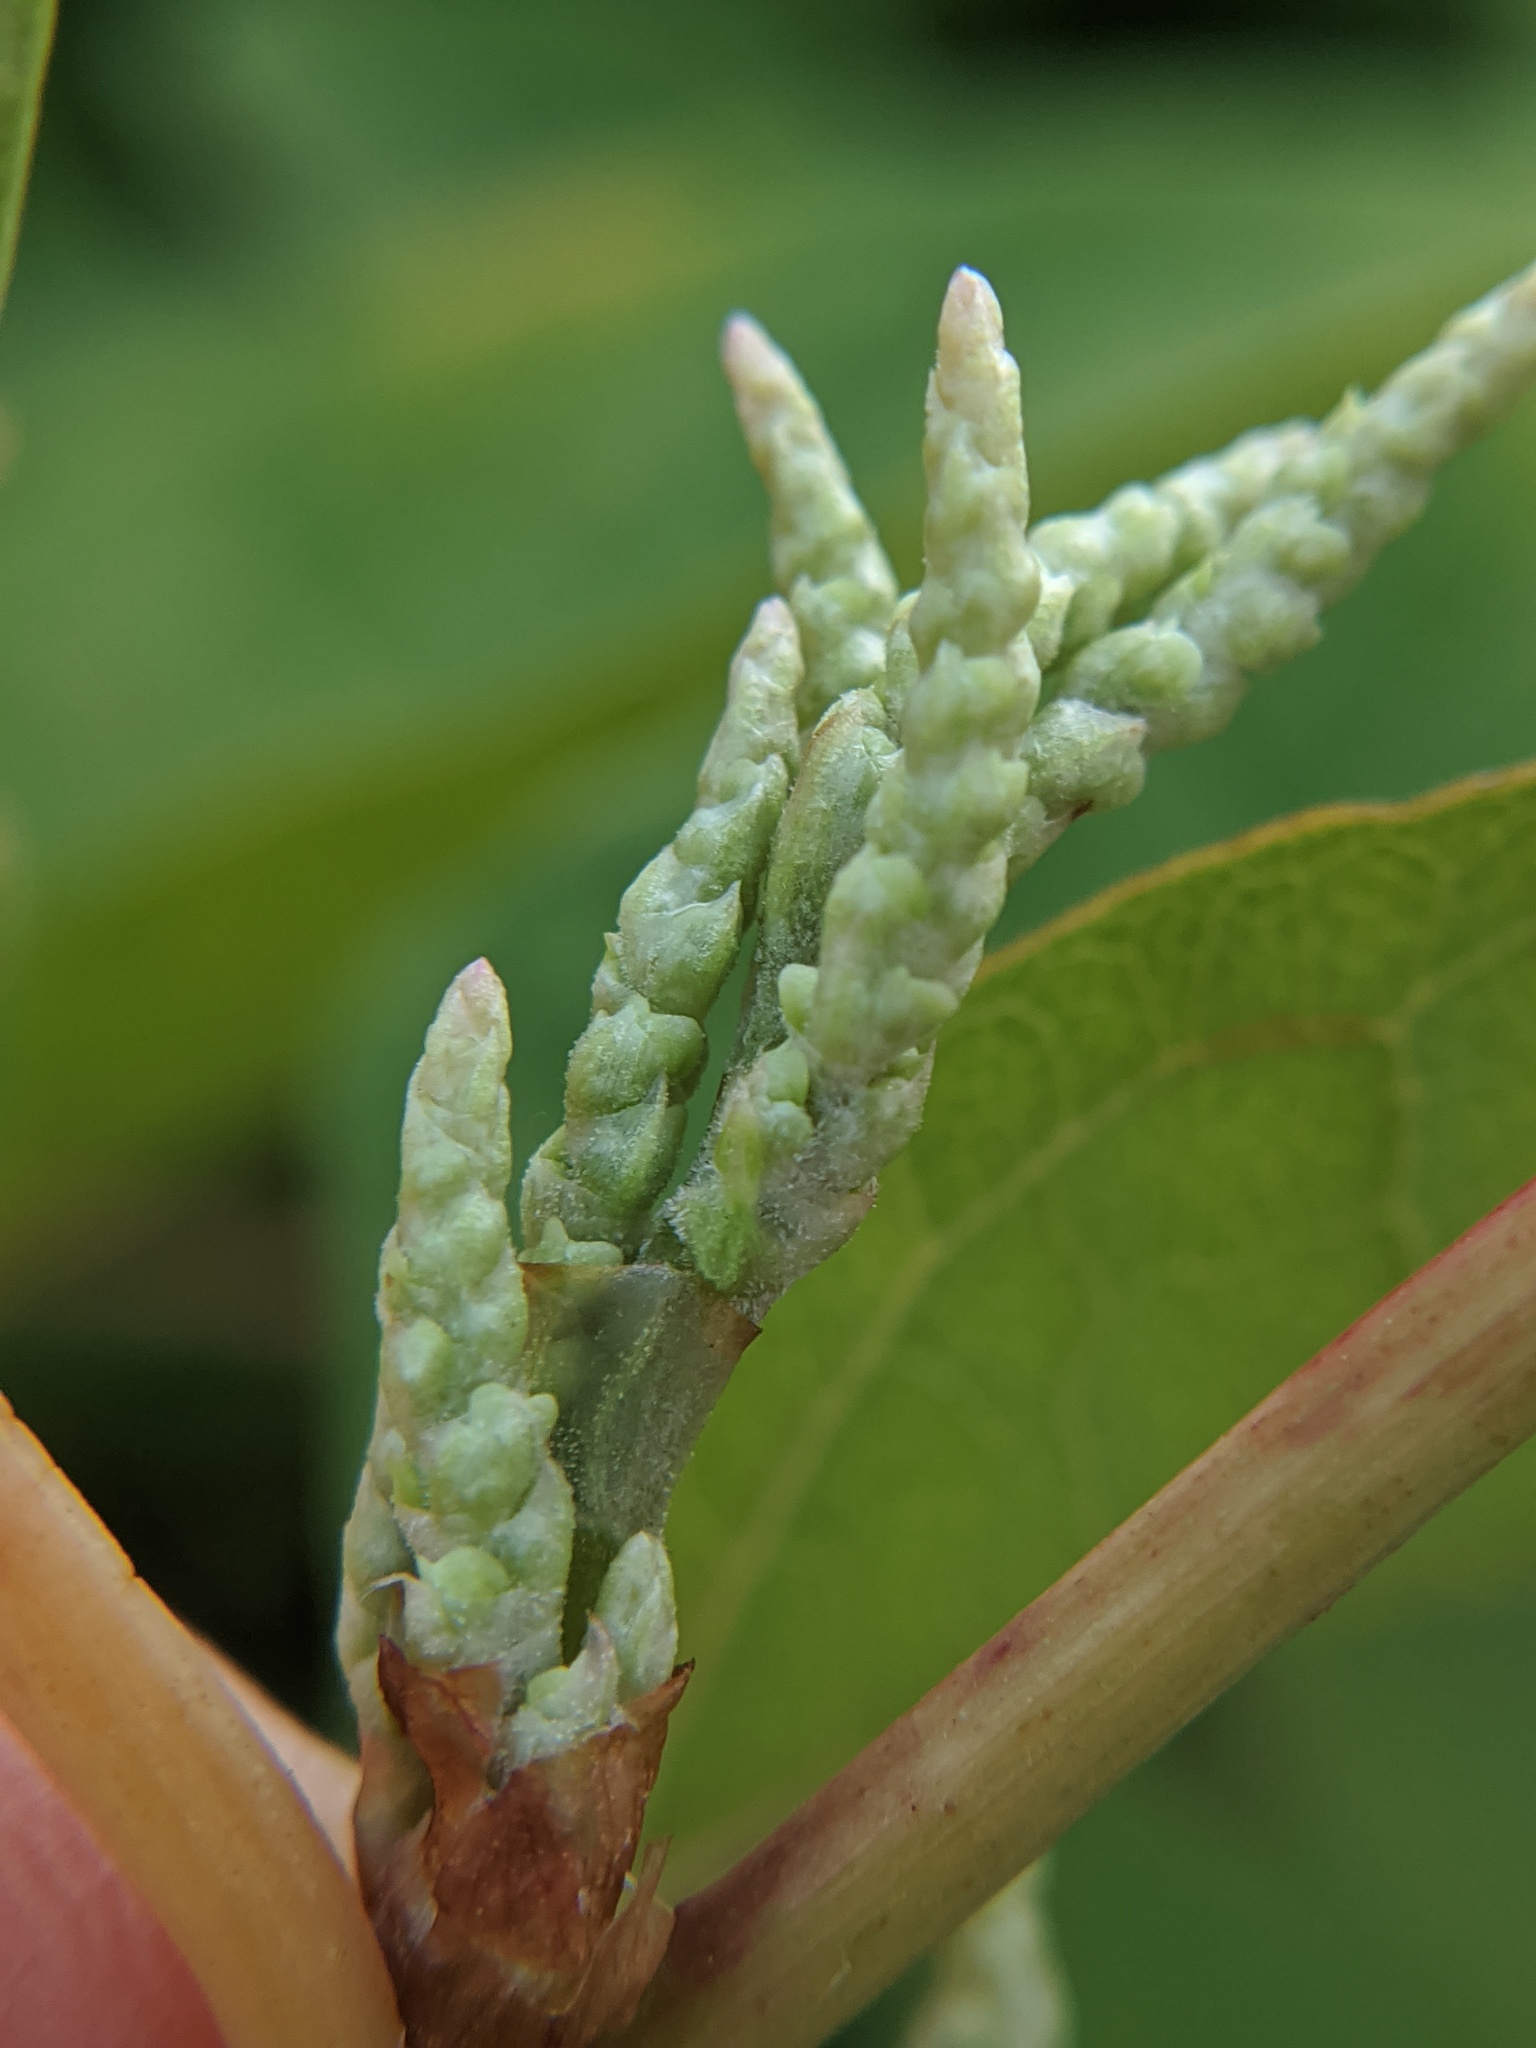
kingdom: Plantae
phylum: Tracheophyta
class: Magnoliopsida
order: Caryophyllales
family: Polygonaceae
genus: Reynoutria
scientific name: Reynoutria japonica
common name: Japanese knotweed
